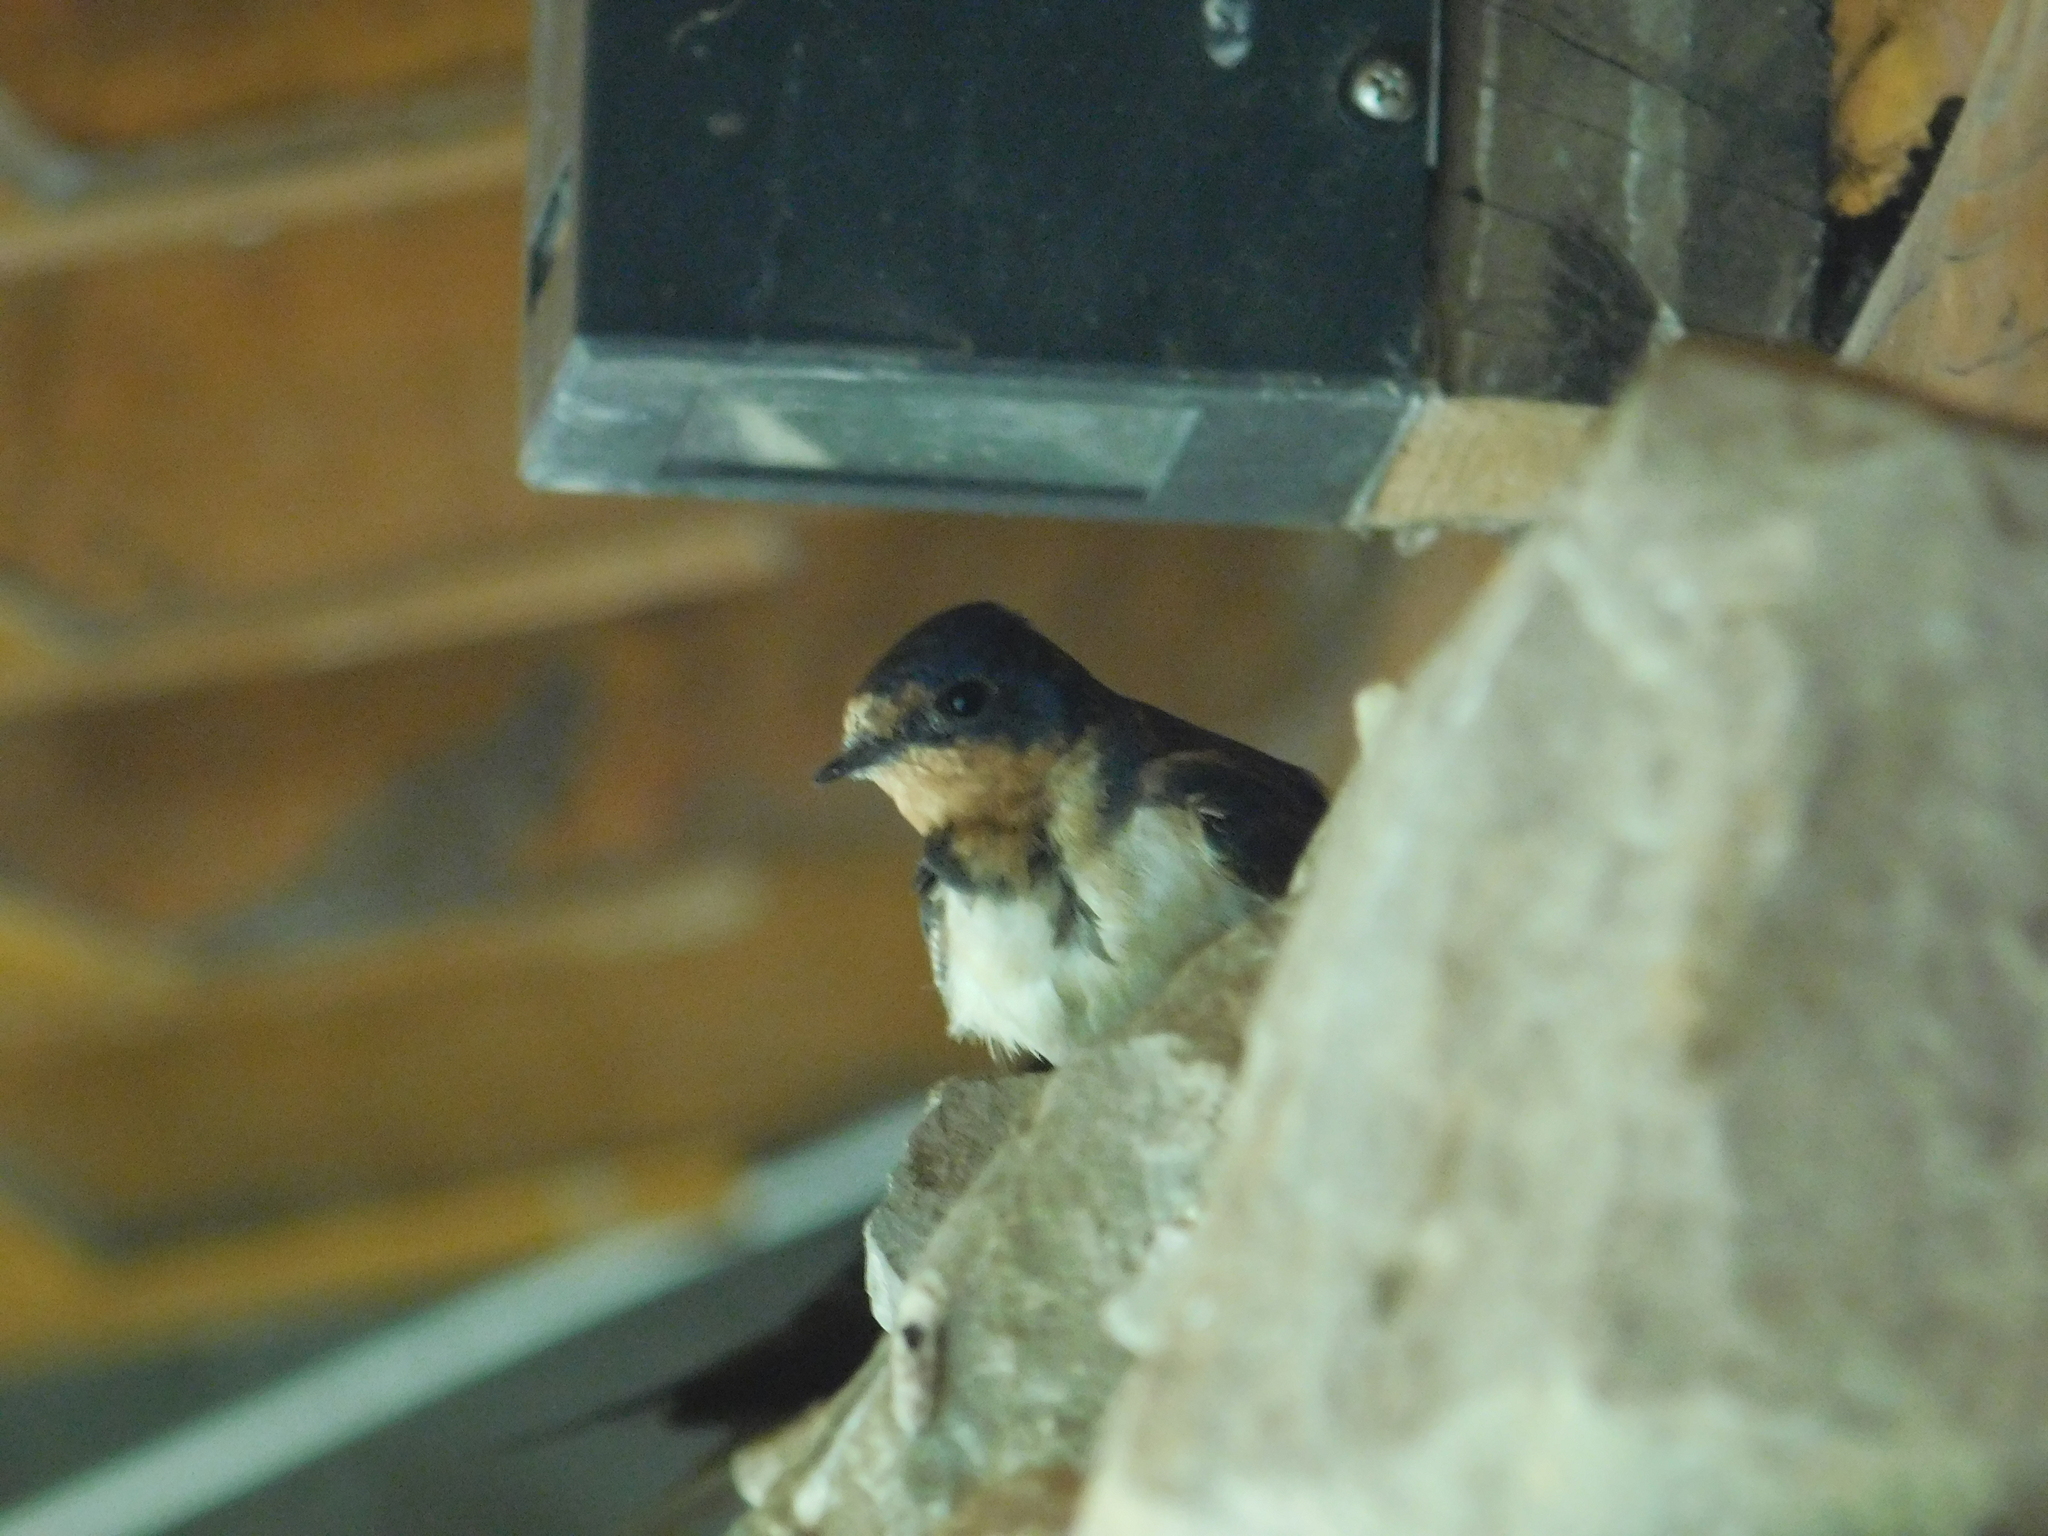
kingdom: Animalia
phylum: Chordata
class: Aves
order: Passeriformes
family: Hirundinidae
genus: Hirundo
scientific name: Hirundo rustica
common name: Barn swallow
